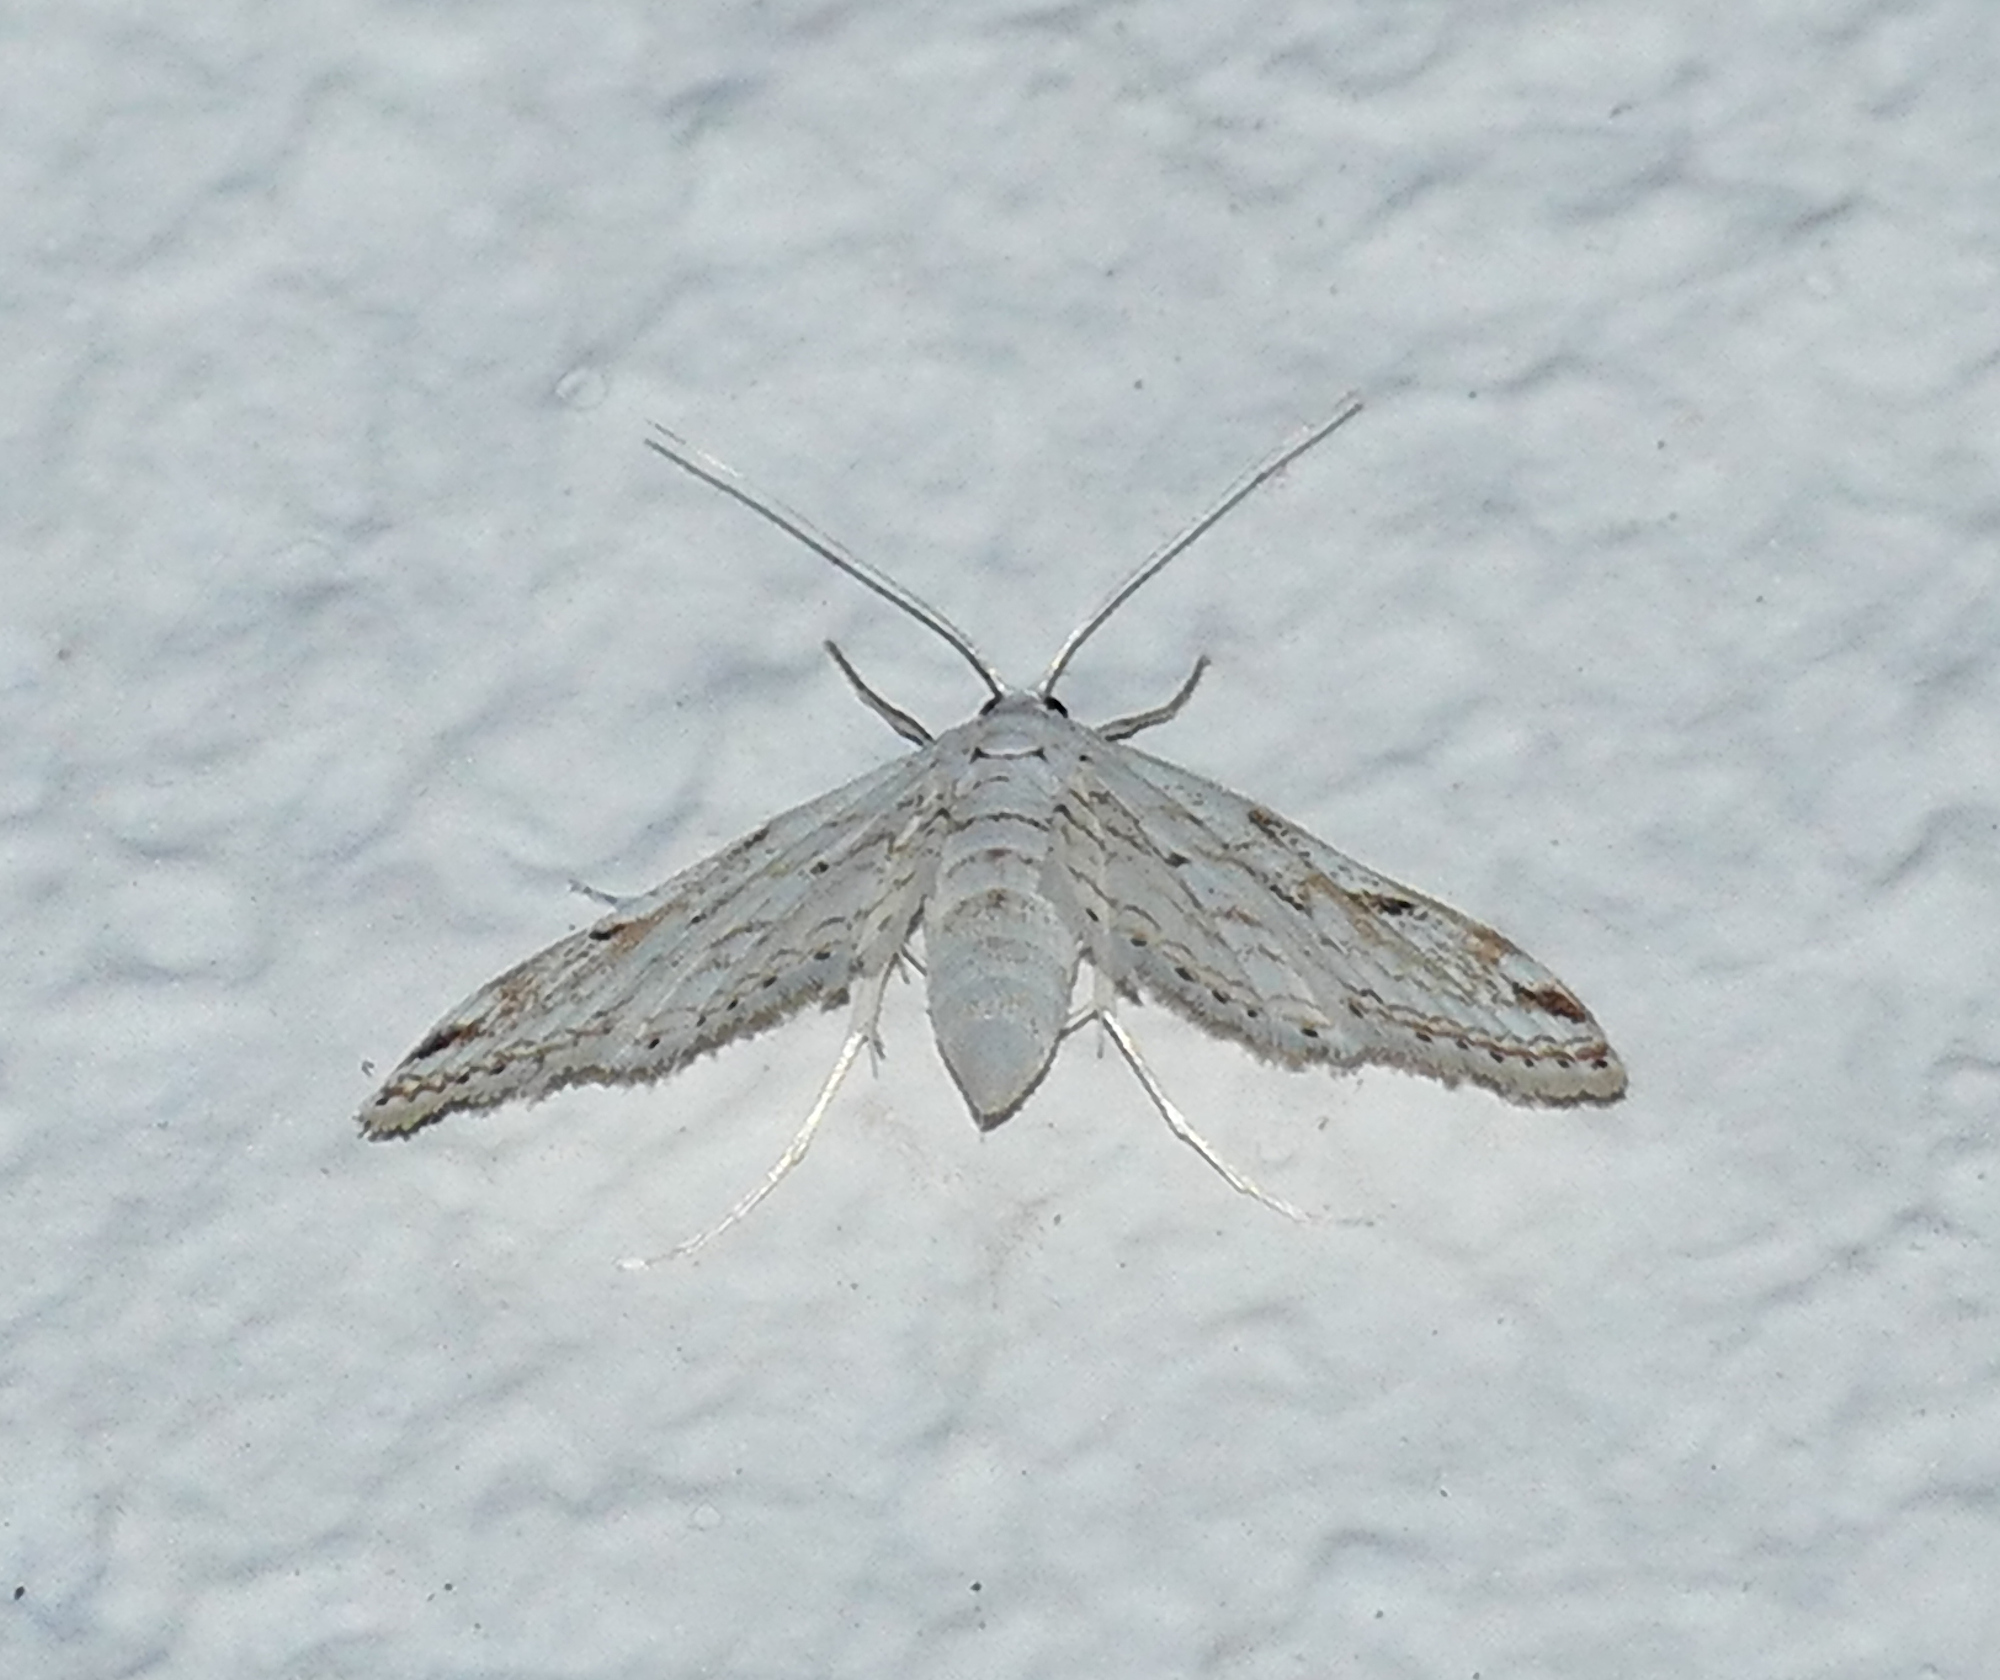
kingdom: Animalia
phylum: Arthropoda
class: Insecta
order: Lepidoptera
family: Crambidae
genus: Parapoynx
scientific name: Parapoynx allionealis
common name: Bladderwort casemaker
